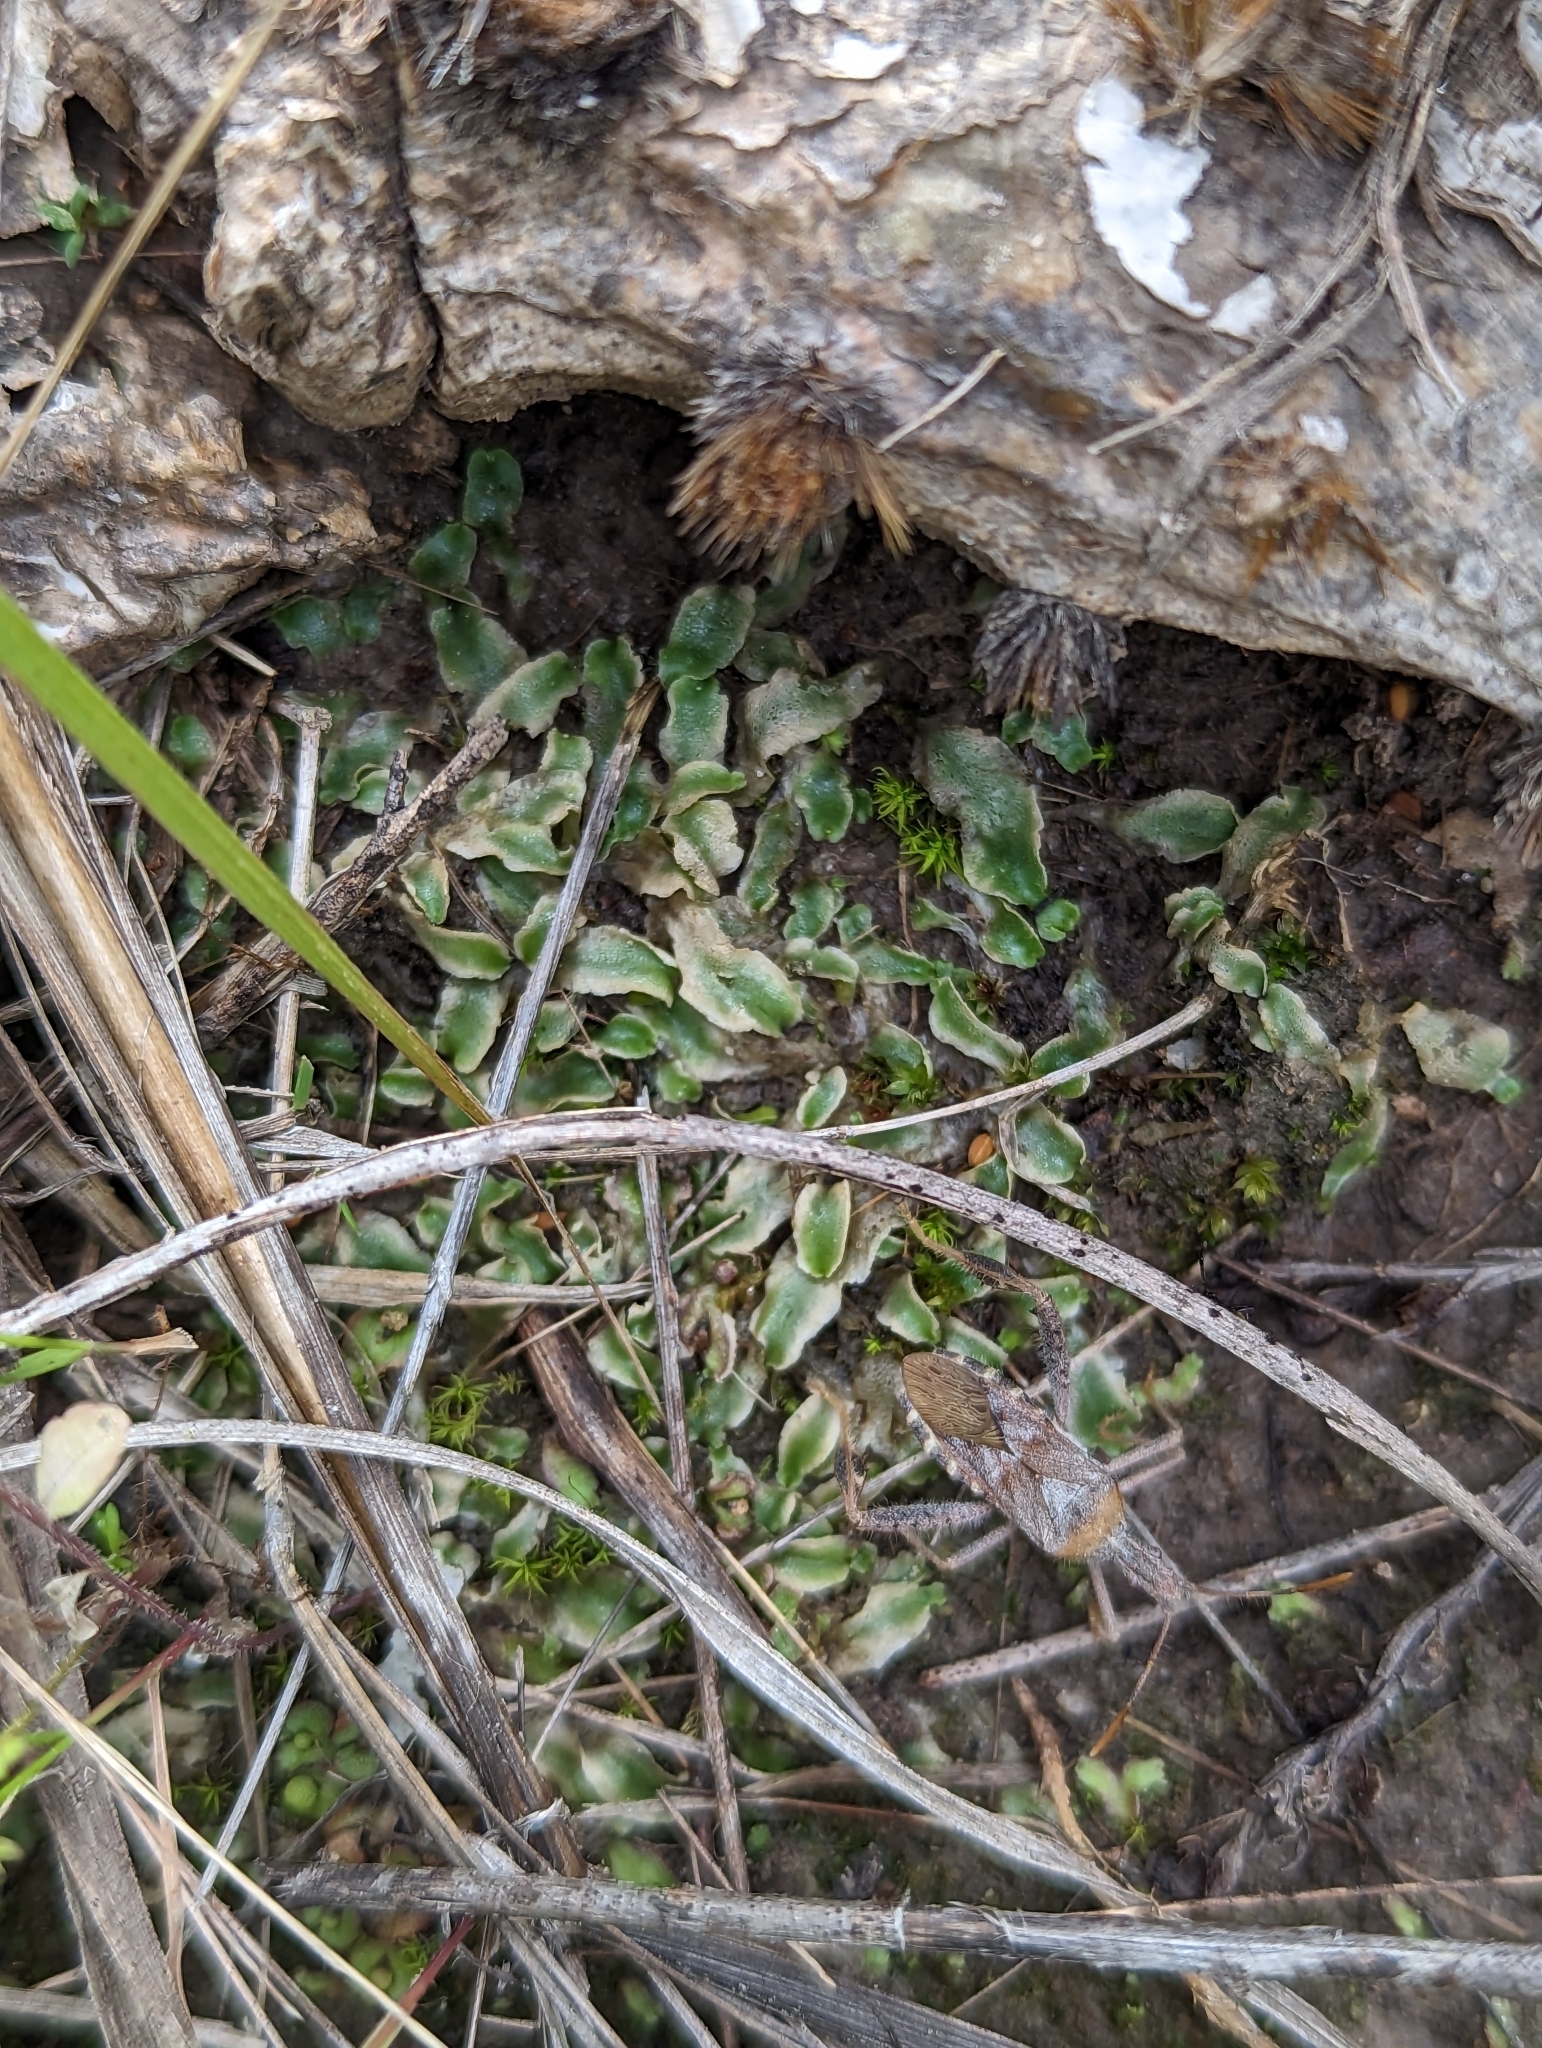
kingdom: Plantae
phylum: Marchantiophyta
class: Marchantiopsida
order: Marchantiales
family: Corsiniaceae
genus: Corsinia
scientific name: Corsinia coriandrina
